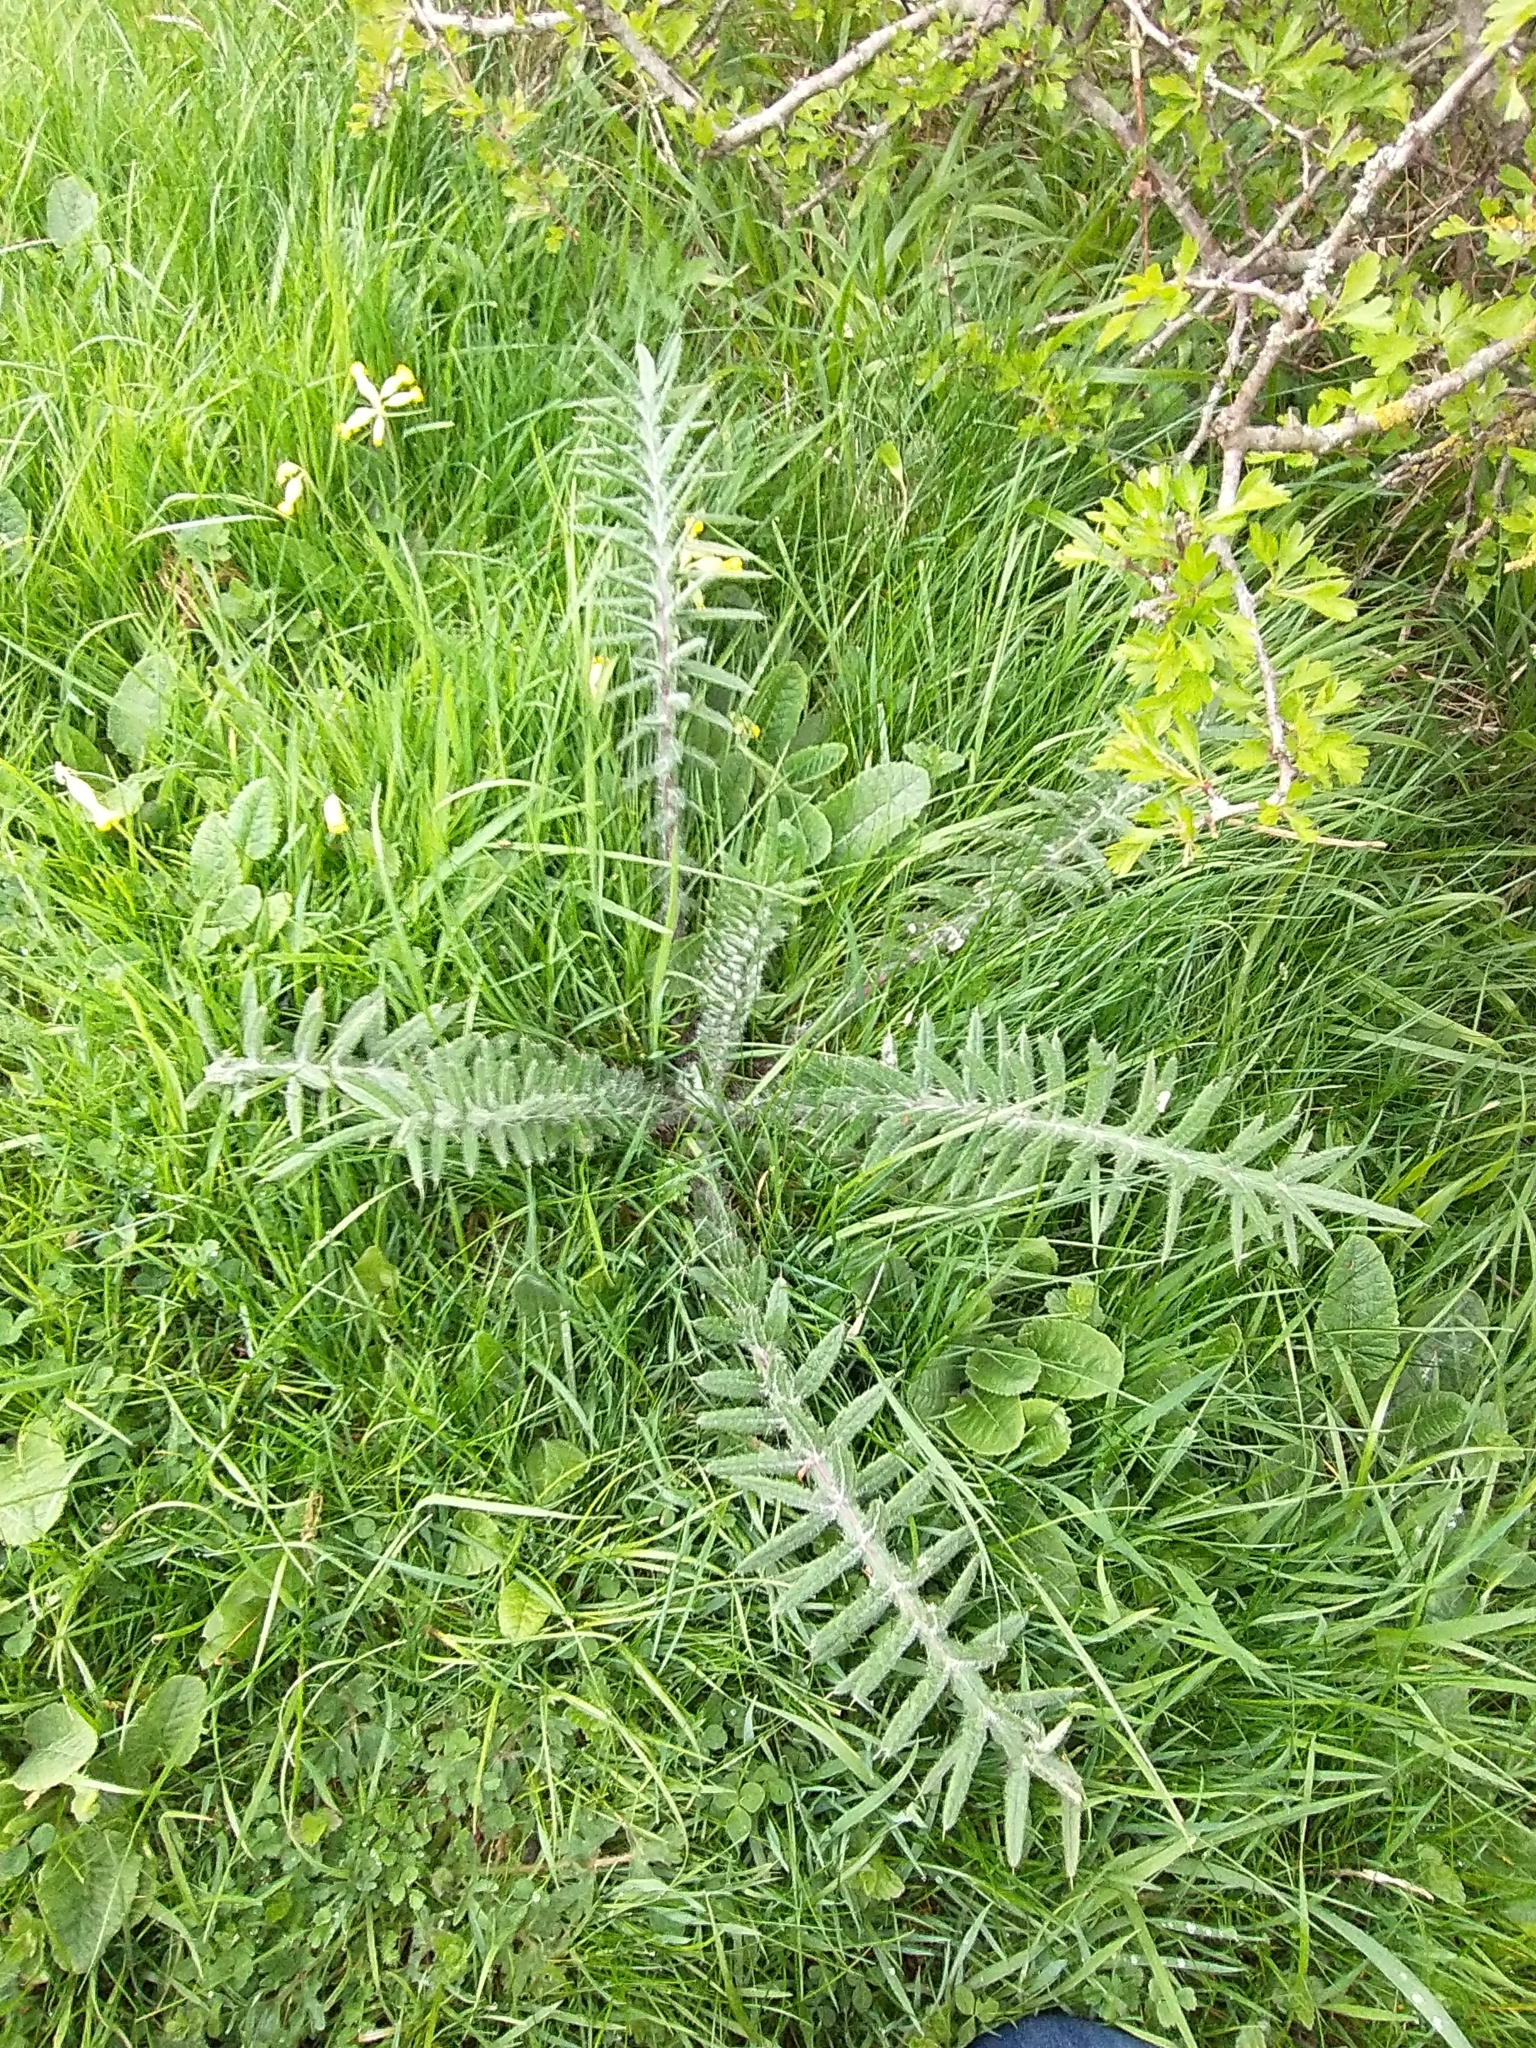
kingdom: Plantae
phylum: Tracheophyta
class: Magnoliopsida
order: Asterales
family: Asteraceae
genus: Lophiolepis
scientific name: Lophiolepis eriophora
